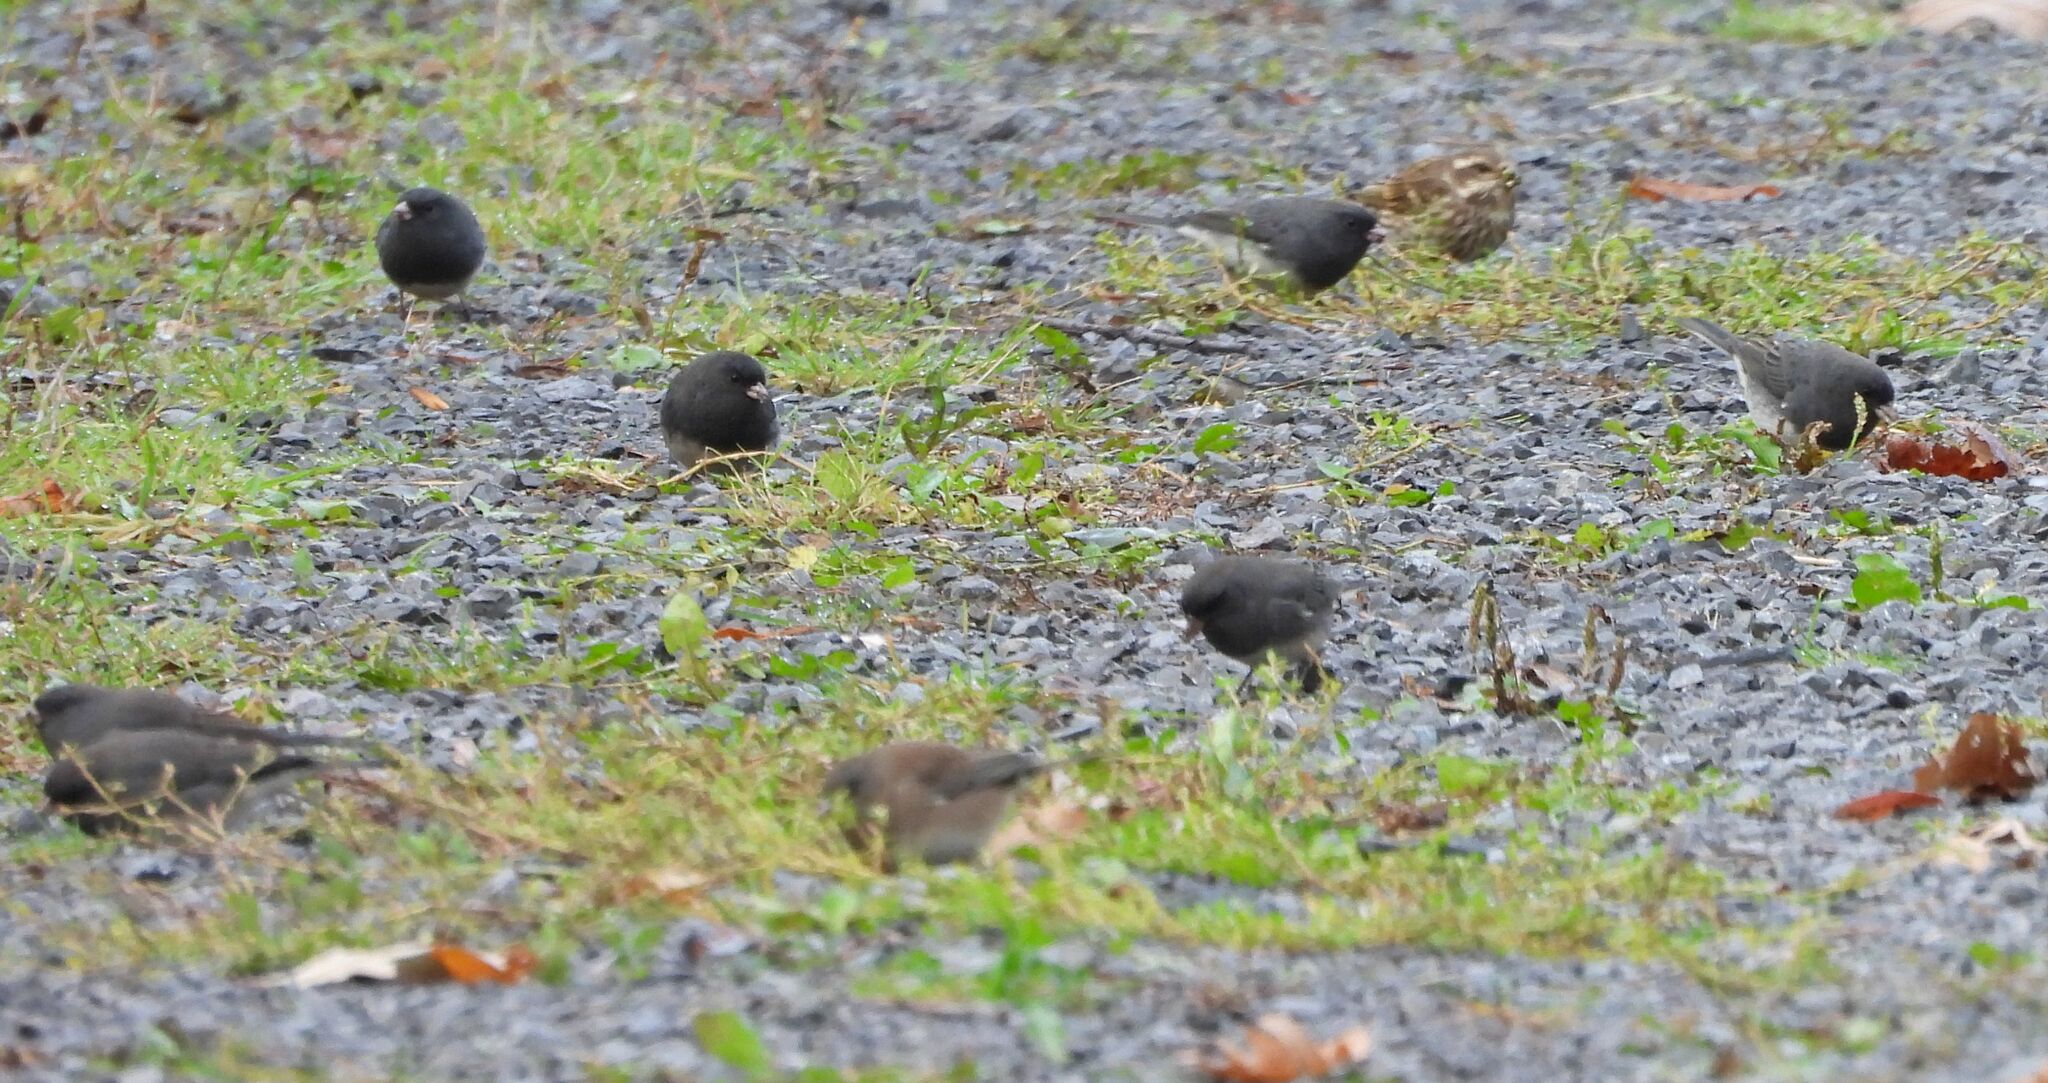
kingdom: Animalia
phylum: Chordata
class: Aves
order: Passeriformes
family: Passerellidae
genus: Junco
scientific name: Junco hyemalis
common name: Dark-eyed junco
